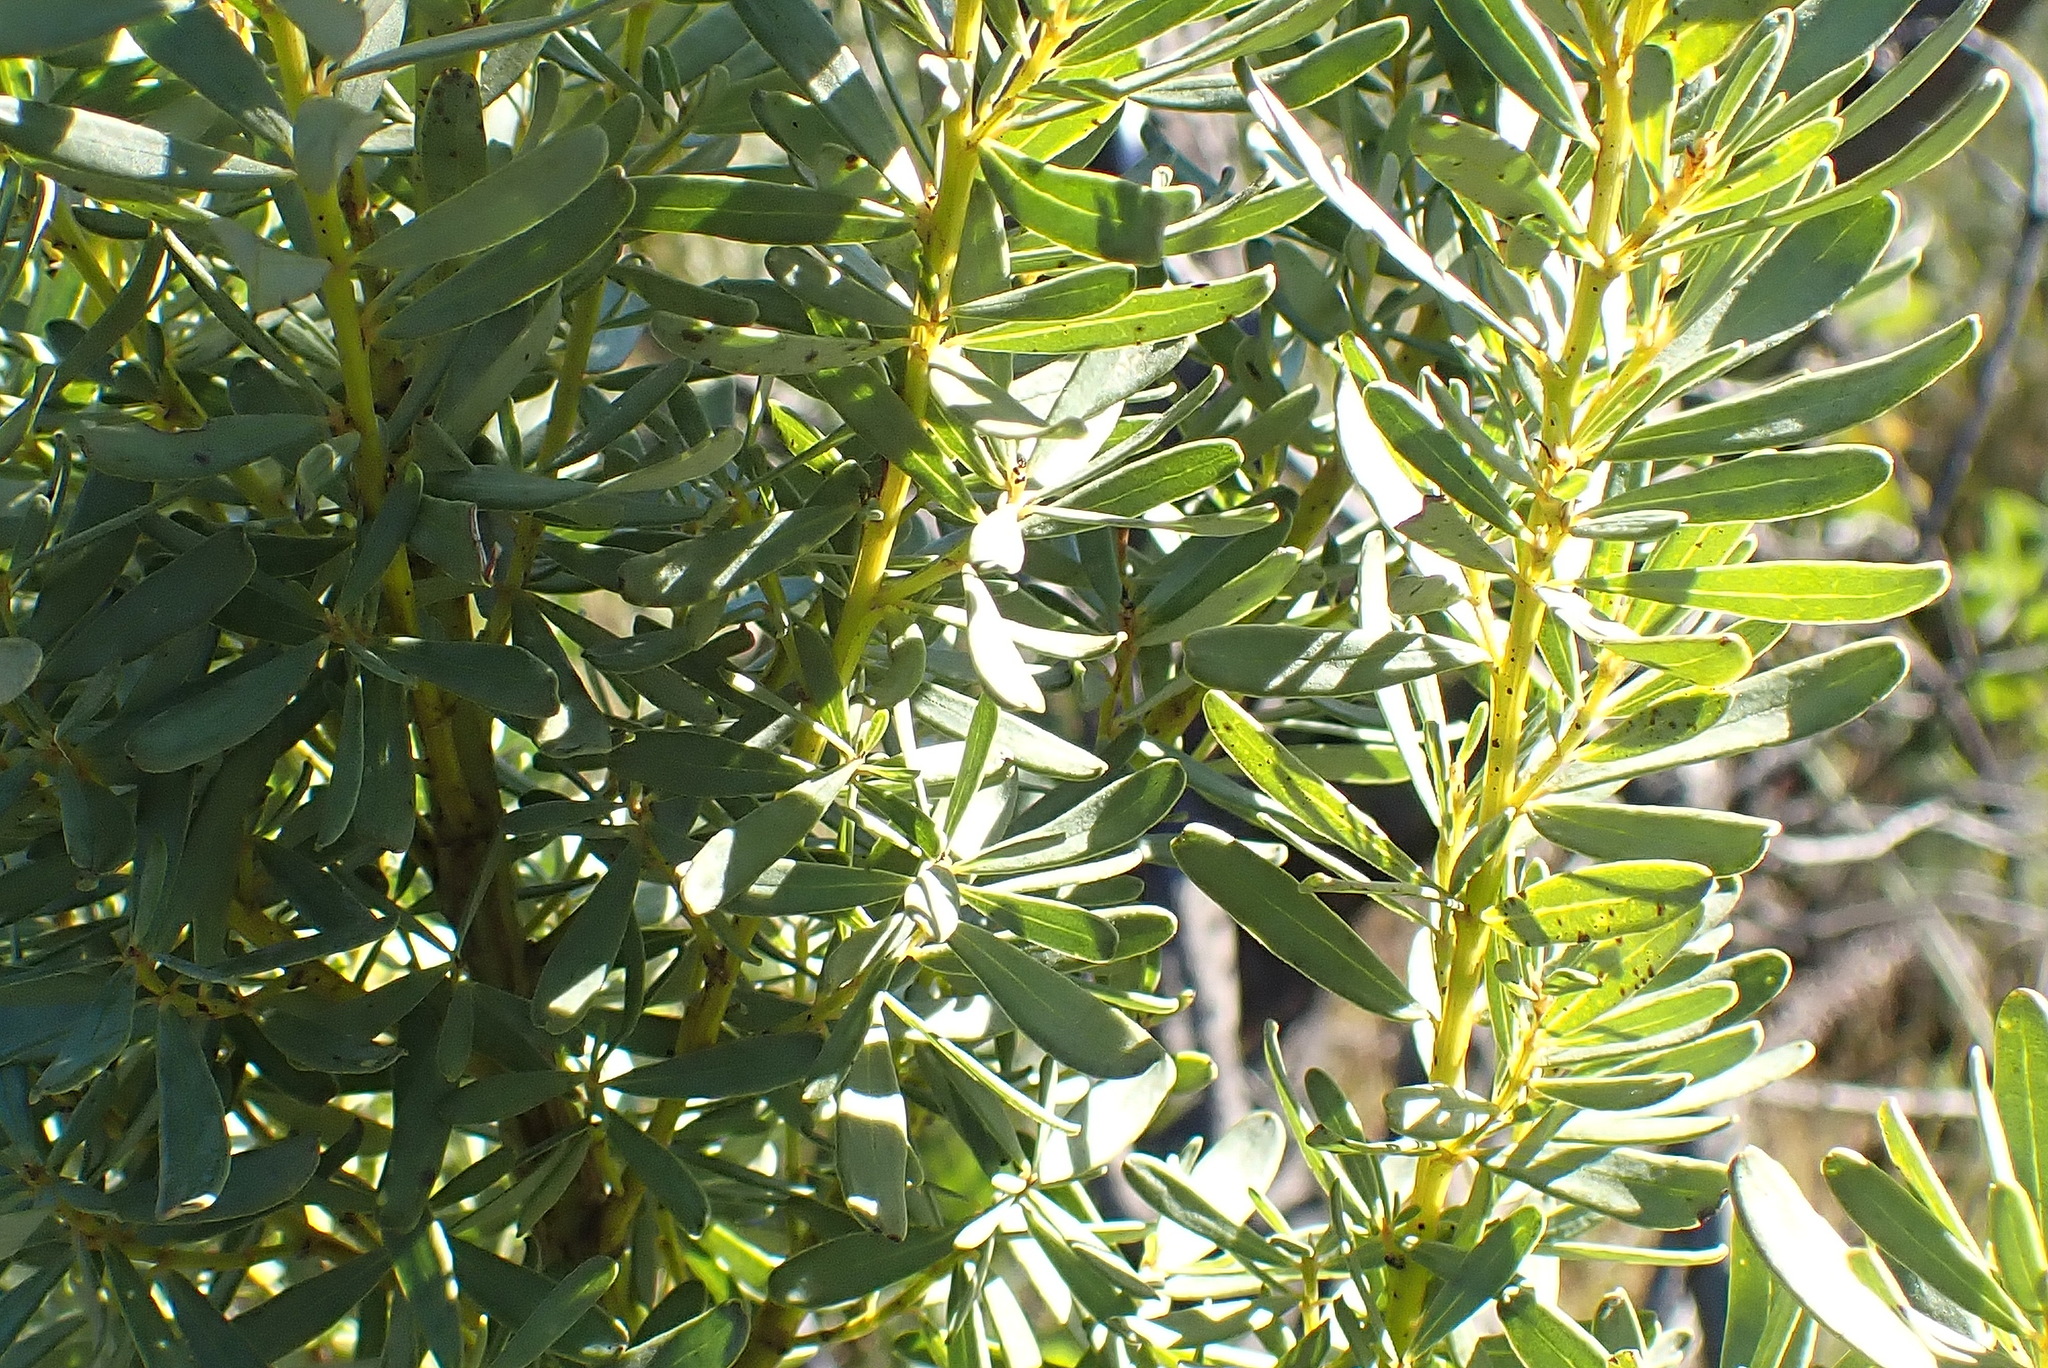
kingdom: Plantae
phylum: Tracheophyta
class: Magnoliopsida
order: Fabales
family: Fabaceae
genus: Cyclopia
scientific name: Cyclopia subternata
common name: Honeybush tea
